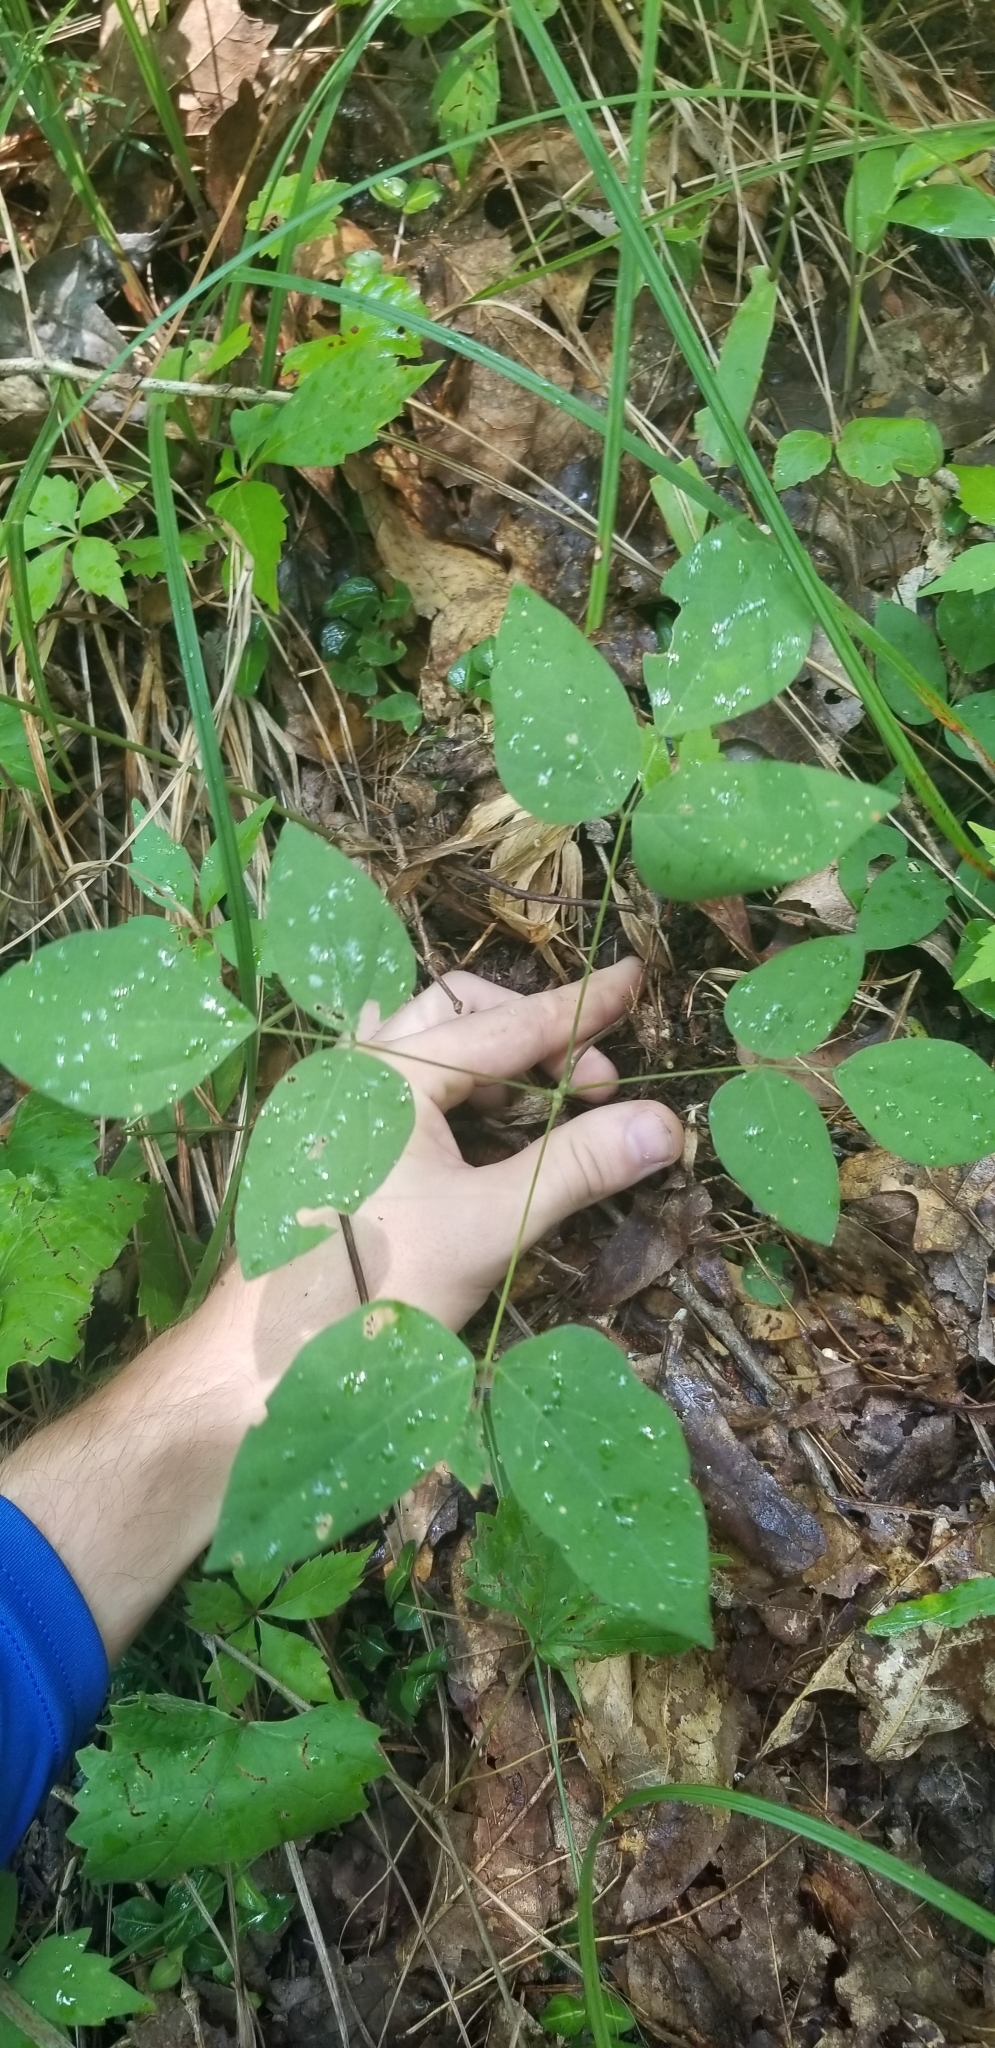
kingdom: Plantae
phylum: Tracheophyta
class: Magnoliopsida
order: Fabales
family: Fabaceae
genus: Hylodesmum
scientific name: Hylodesmum nudiflorum
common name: Bare-stemmed tick-trefoil
